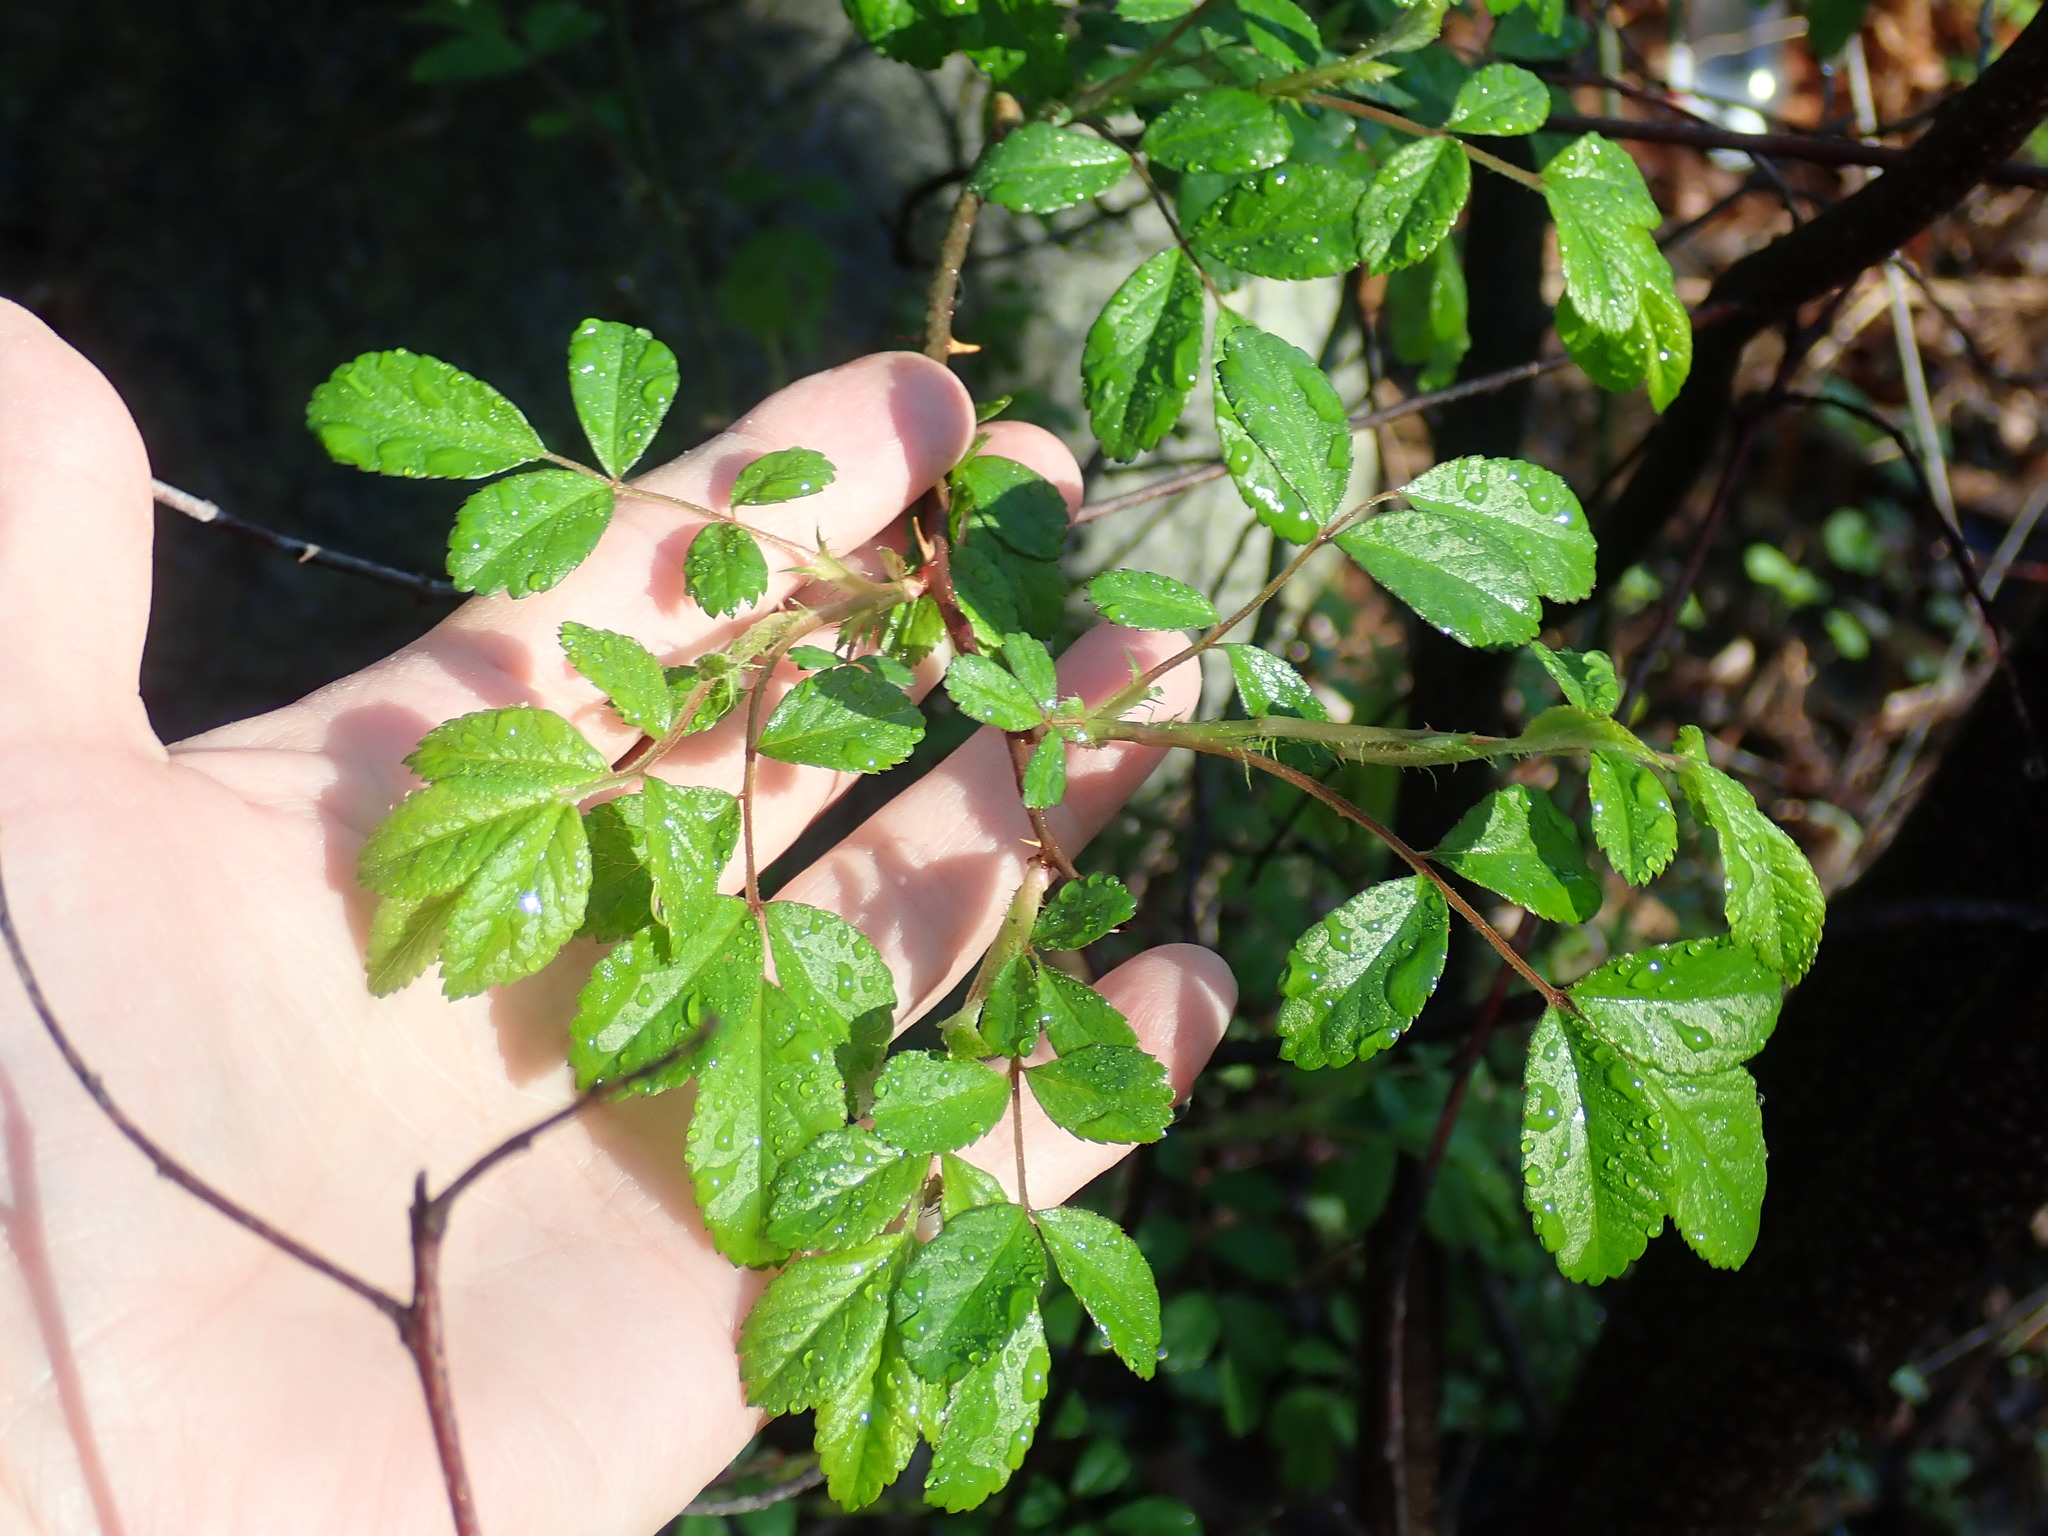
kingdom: Plantae
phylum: Tracheophyta
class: Magnoliopsida
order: Rosales
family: Rosaceae
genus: Rosa
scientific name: Rosa multiflora
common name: Multiflora rose
